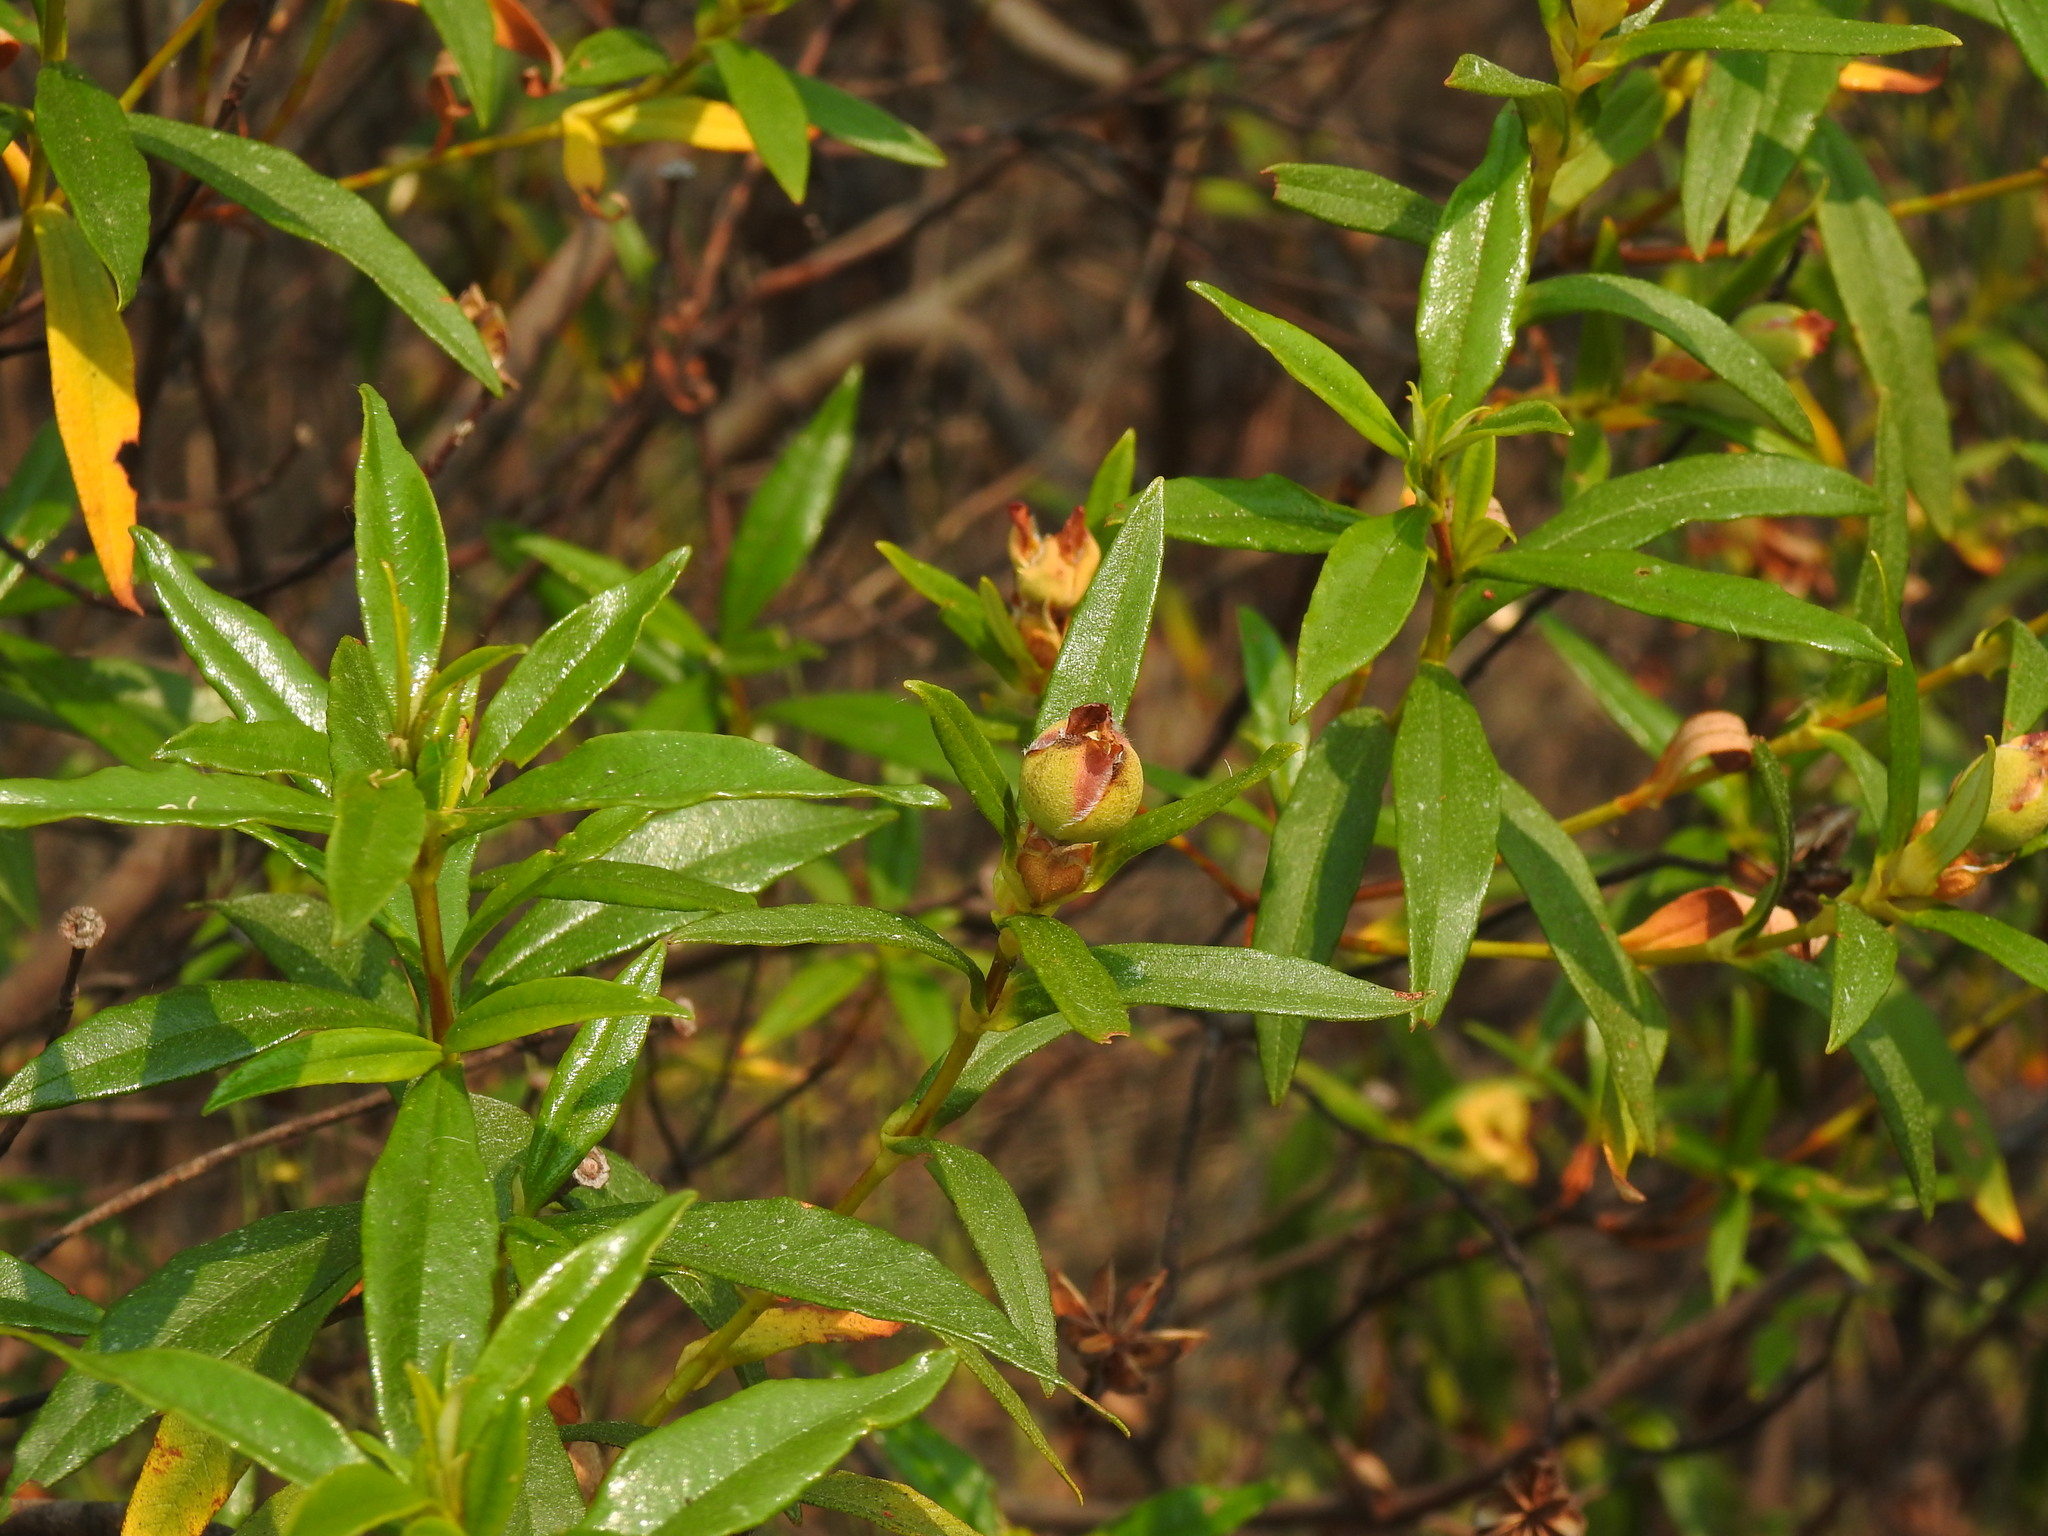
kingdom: Plantae
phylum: Tracheophyta
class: Magnoliopsida
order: Malvales
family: Cistaceae
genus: Cistus
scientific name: Cistus ladanifer
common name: Common gum cistus
